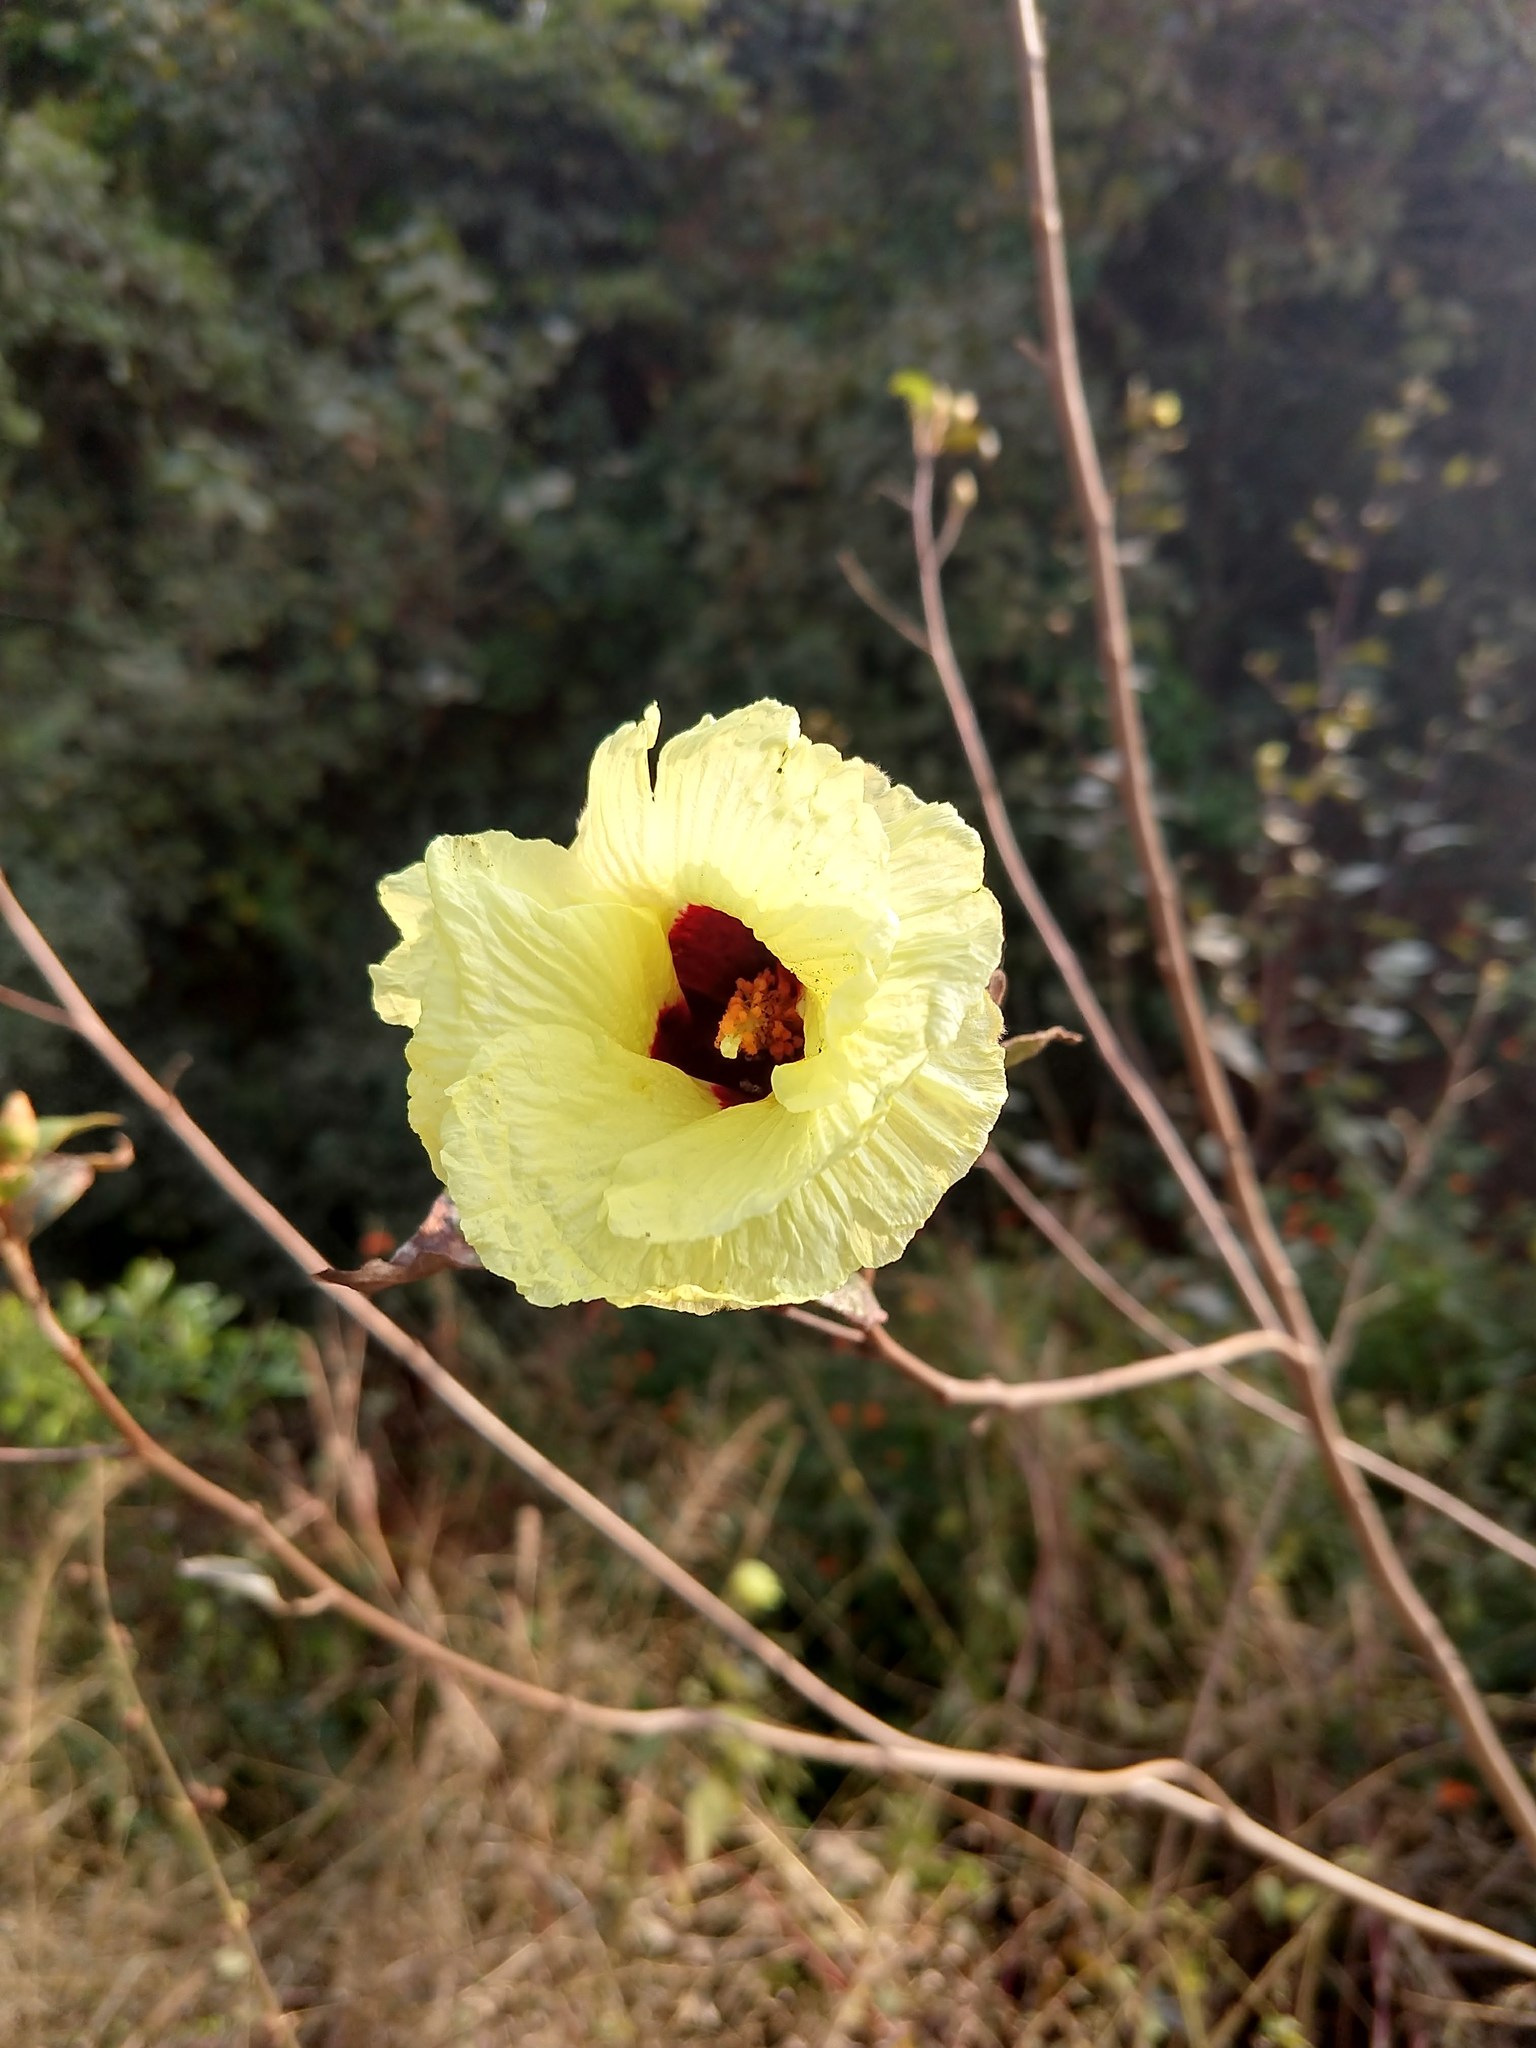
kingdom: Plantae
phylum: Tracheophyta
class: Magnoliopsida
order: Malvales
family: Malvaceae
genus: Thespesia
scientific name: Thespesia lampas
